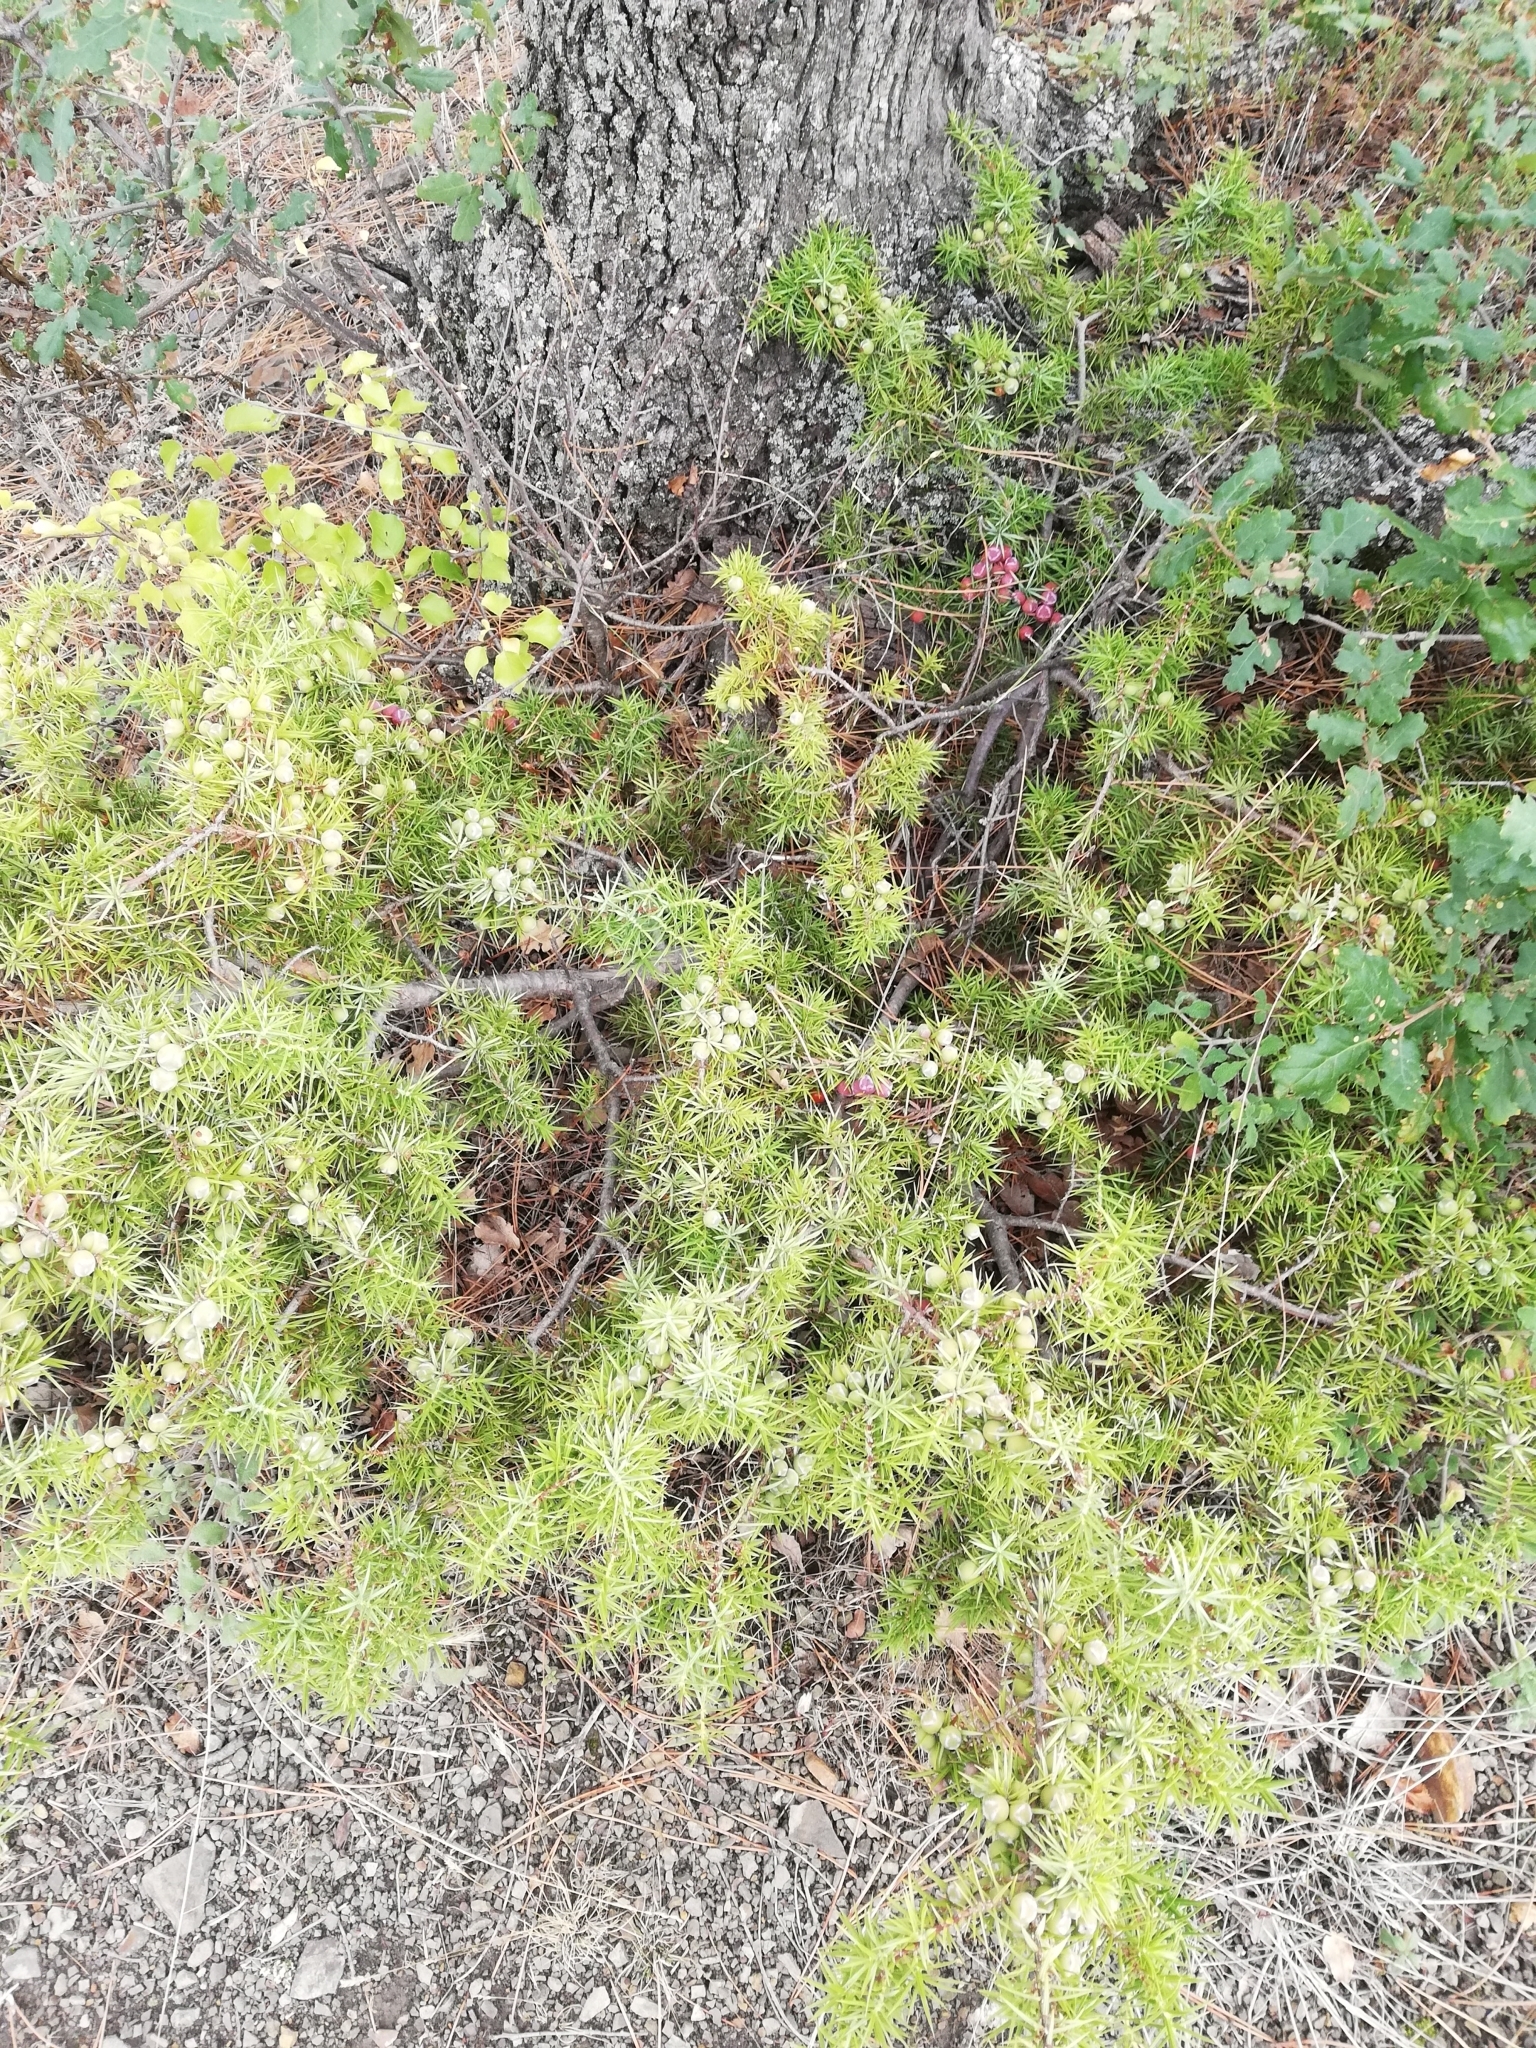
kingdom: Plantae
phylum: Tracheophyta
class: Pinopsida
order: Pinales
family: Cupressaceae
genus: Juniperus
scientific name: Juniperus oxycedrus
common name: Prickly juniper
